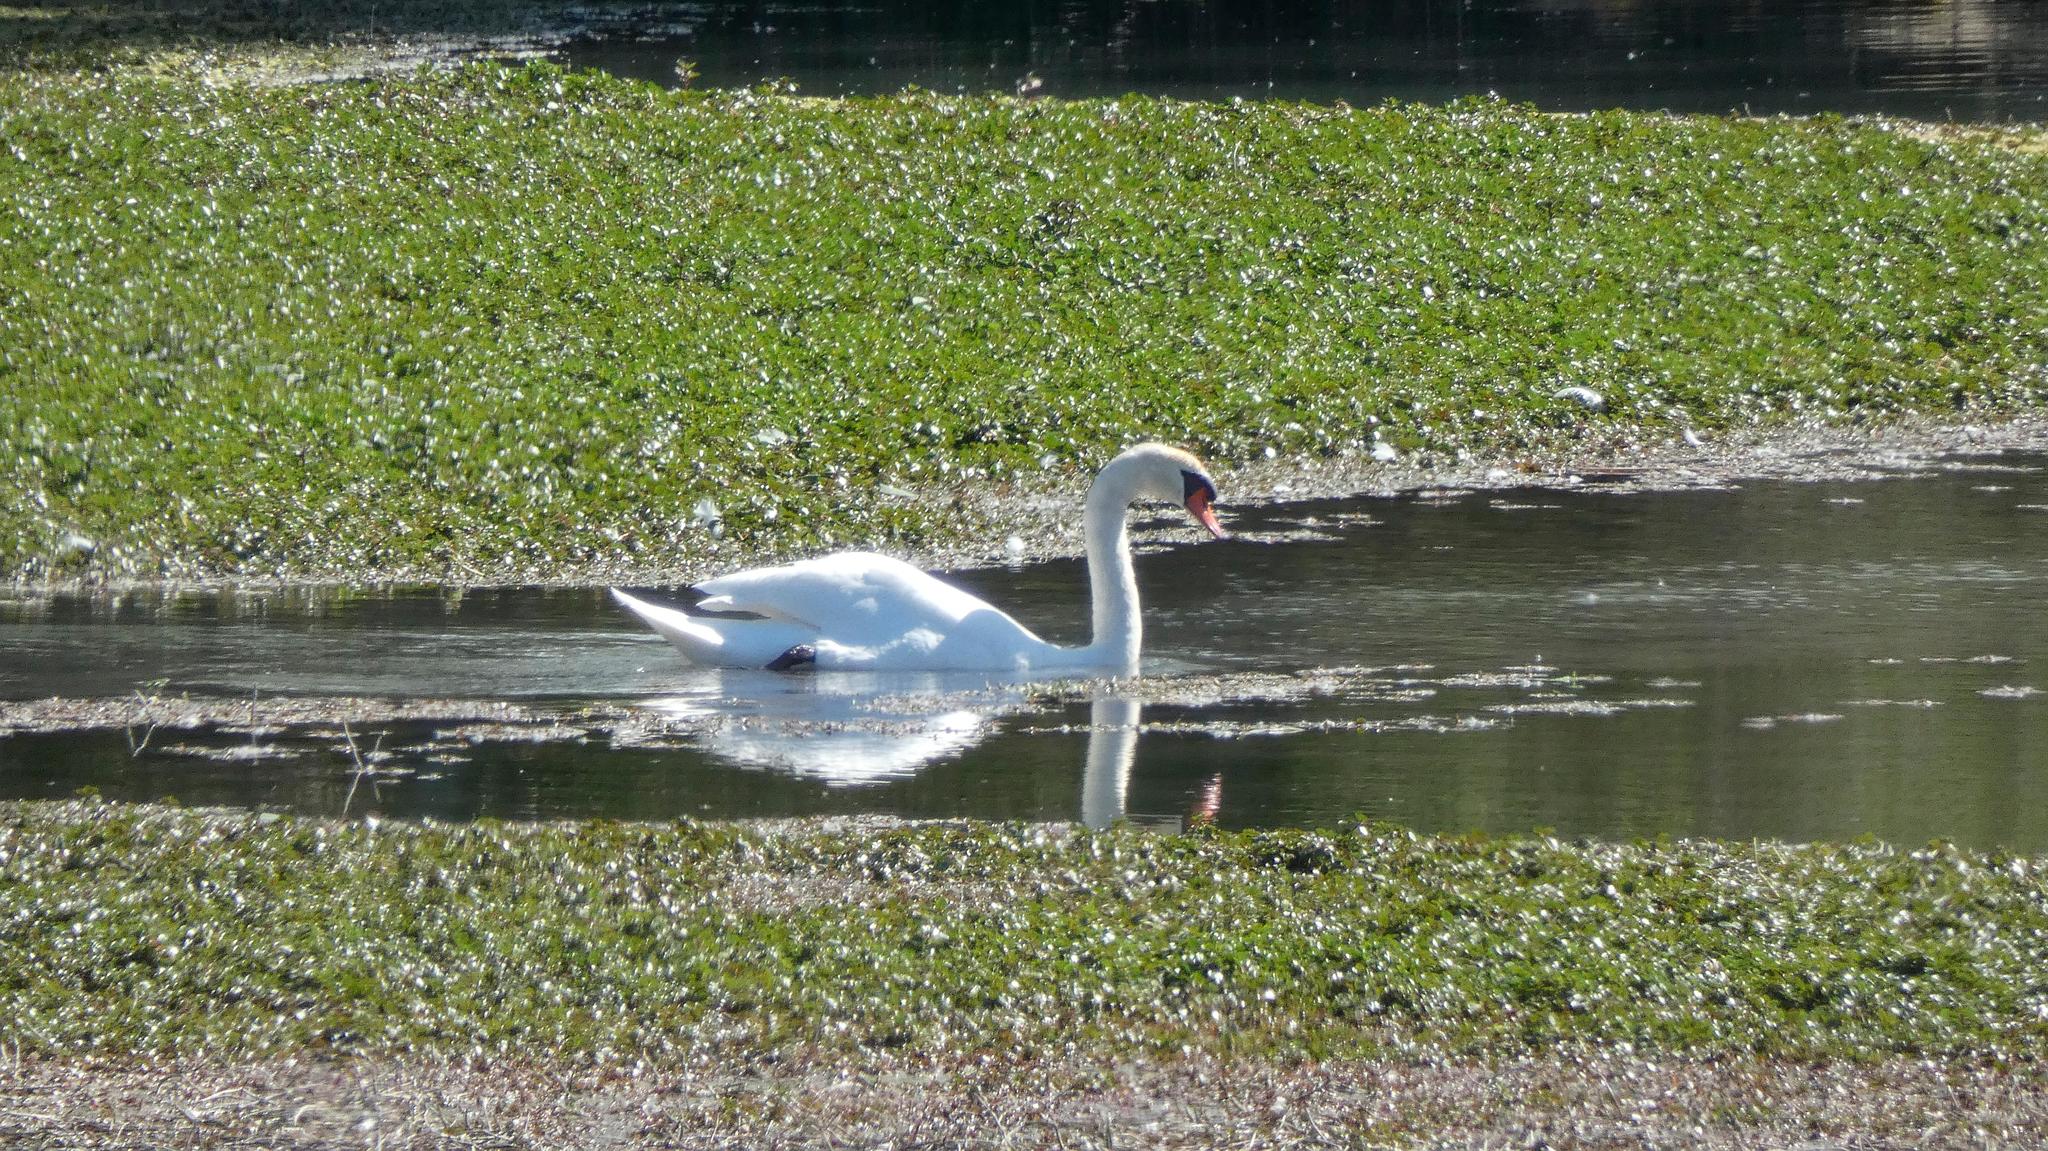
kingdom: Animalia
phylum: Chordata
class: Aves
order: Anseriformes
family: Anatidae
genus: Cygnus
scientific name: Cygnus olor
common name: Mute swan
